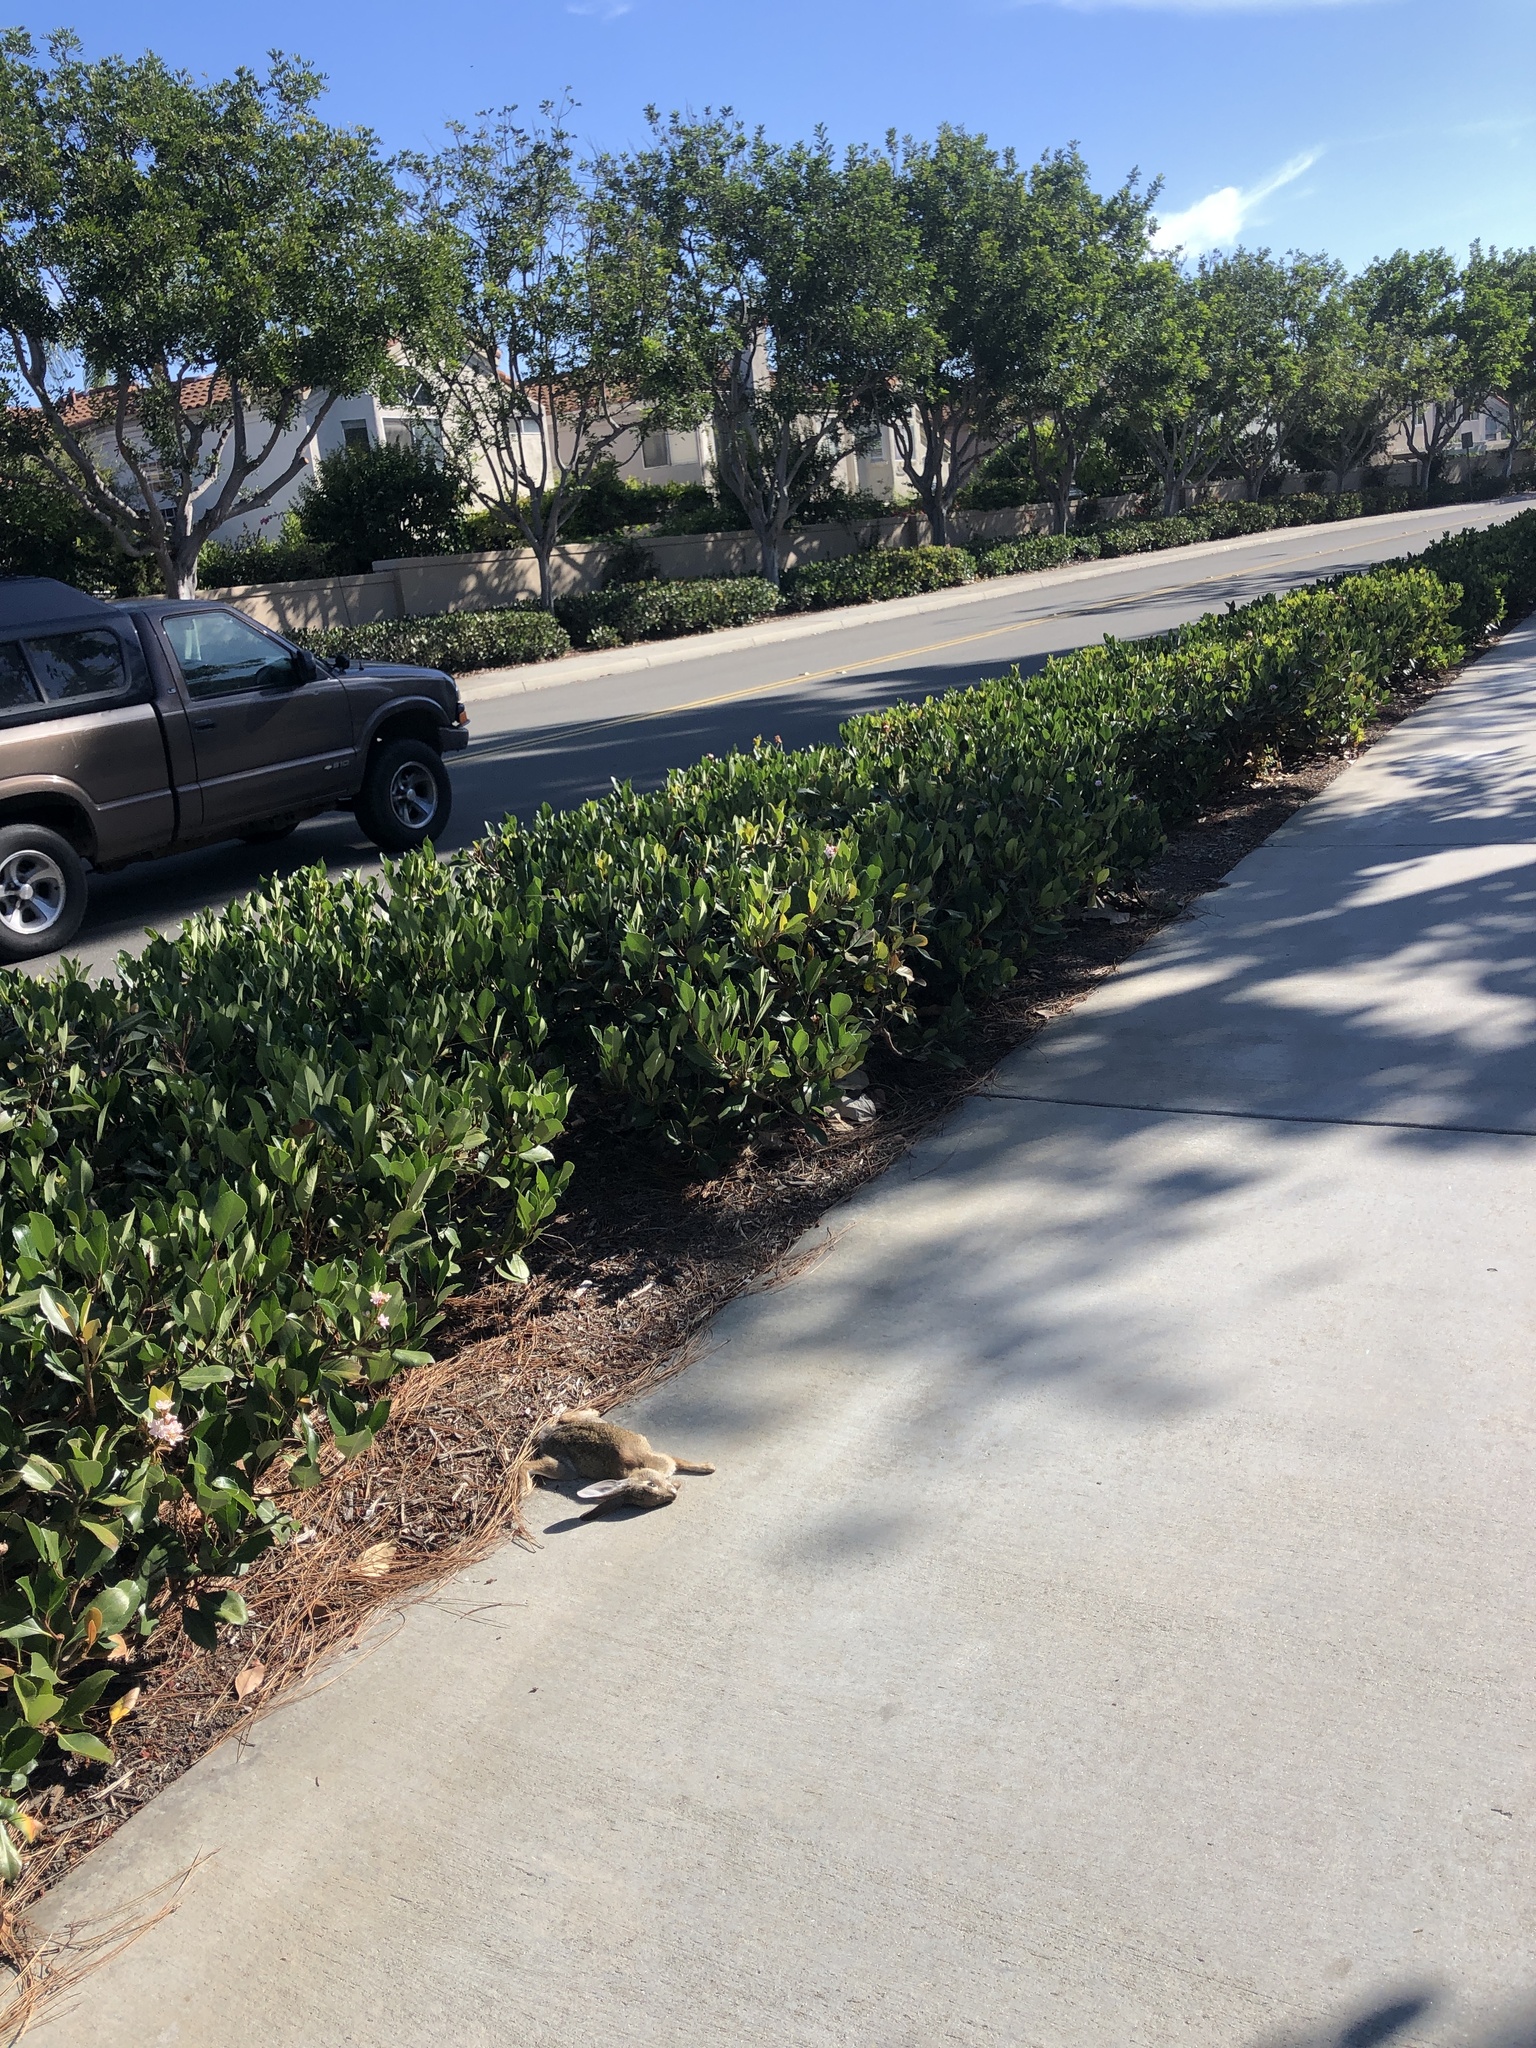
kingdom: Animalia
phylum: Chordata
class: Mammalia
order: Lagomorpha
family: Leporidae
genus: Sylvilagus
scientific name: Sylvilagus audubonii
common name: Desert cottontail
